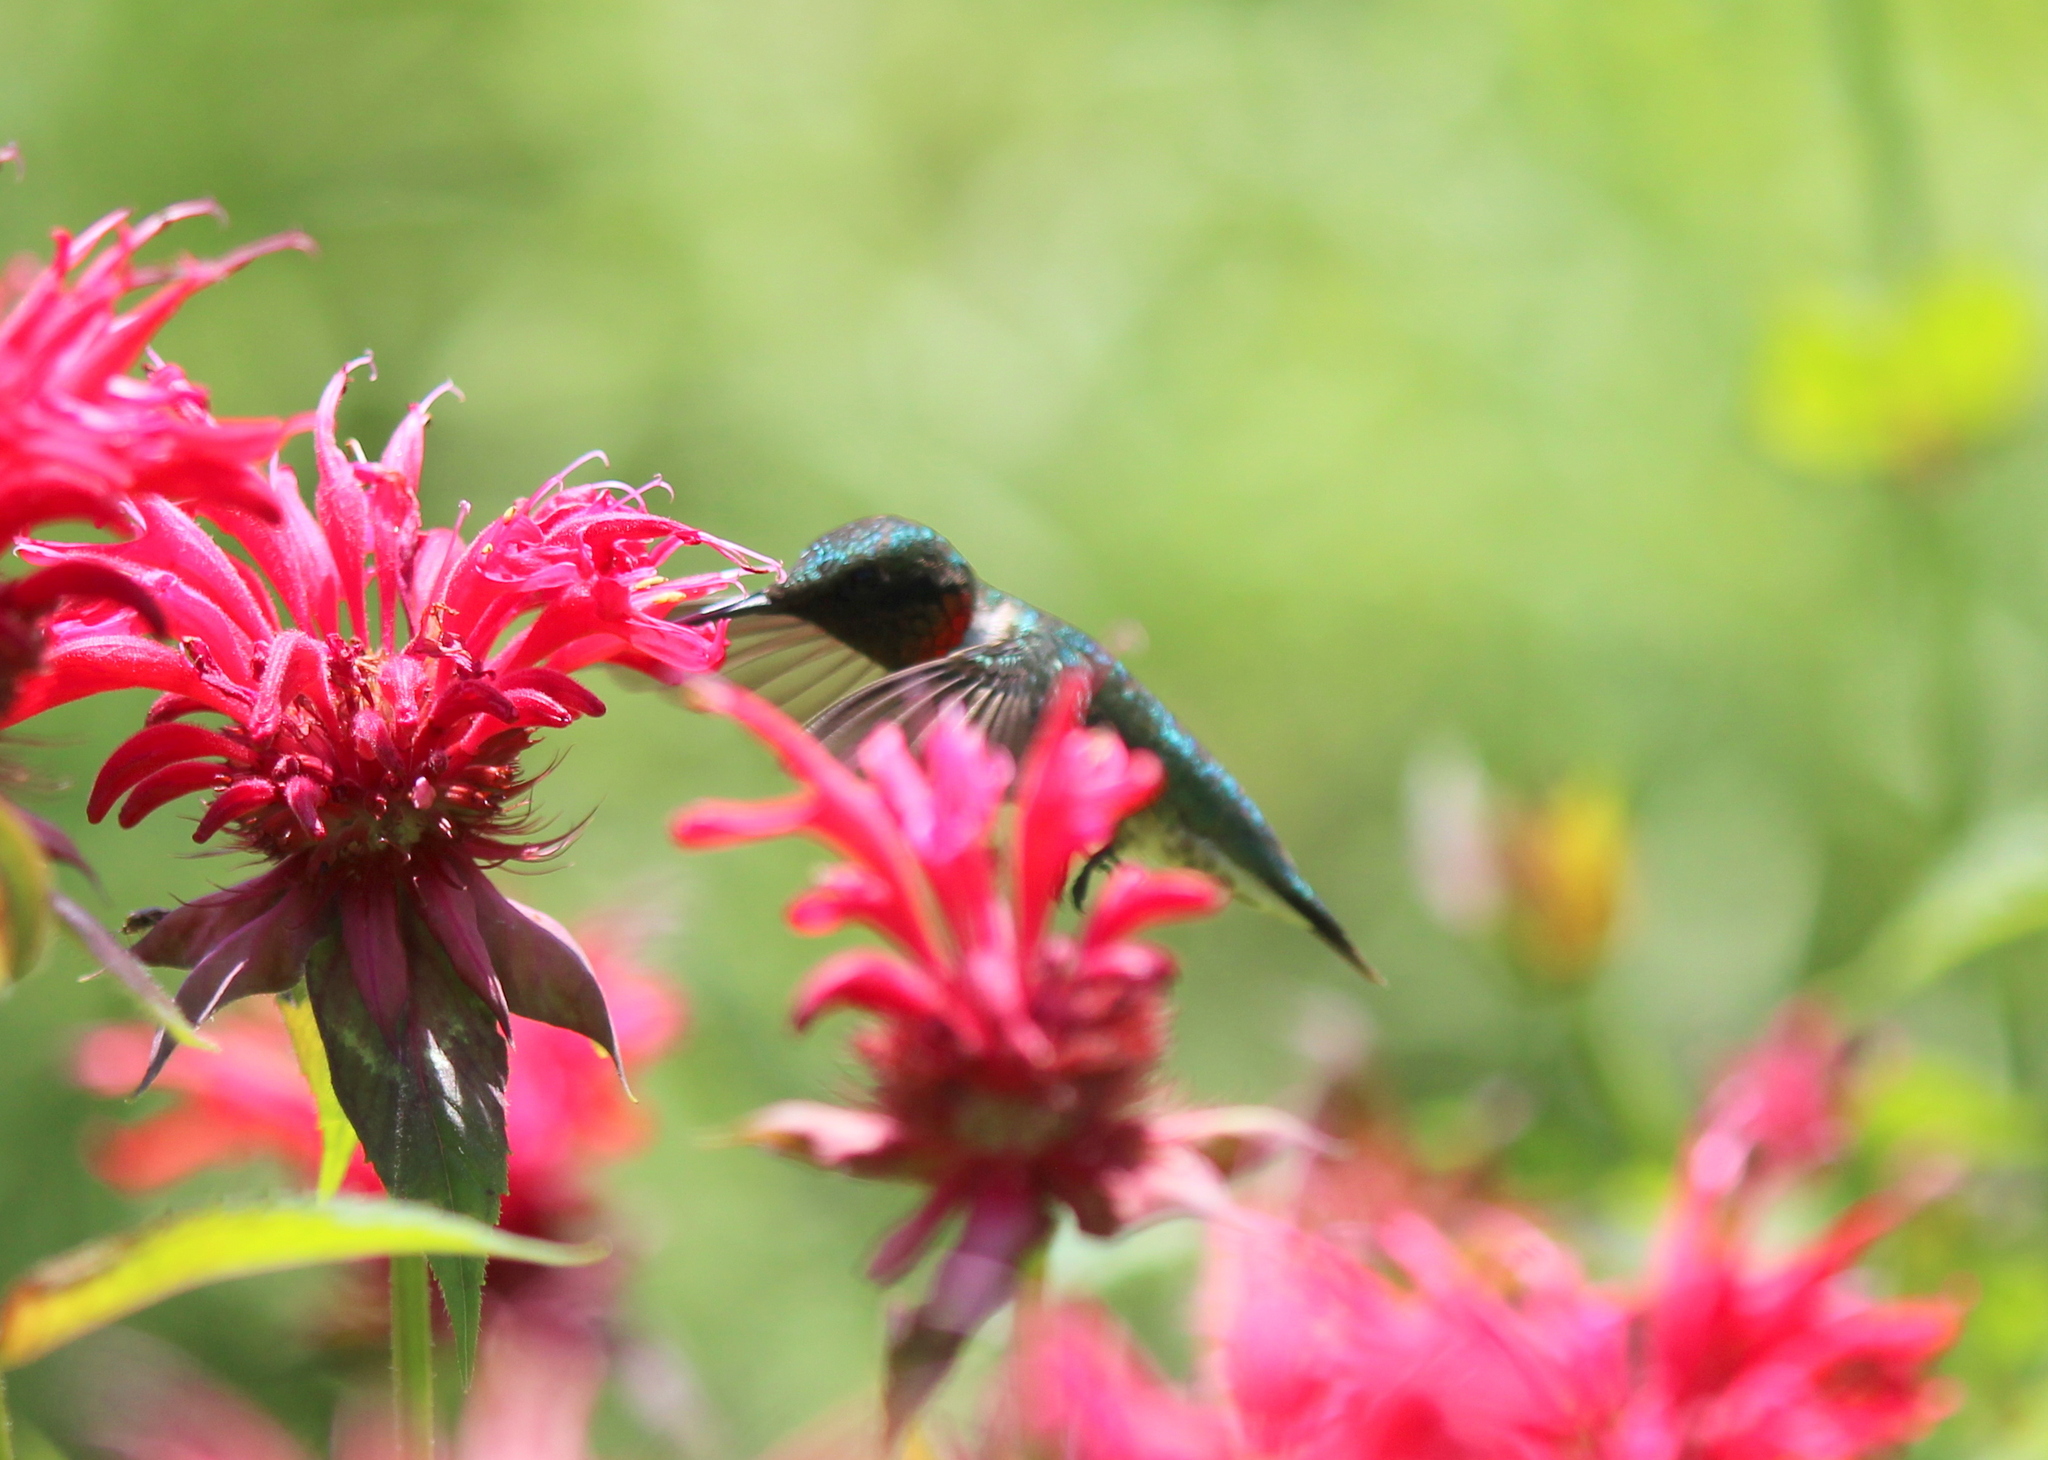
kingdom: Animalia
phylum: Chordata
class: Aves
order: Apodiformes
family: Trochilidae
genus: Archilochus
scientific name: Archilochus colubris
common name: Ruby-throated hummingbird
